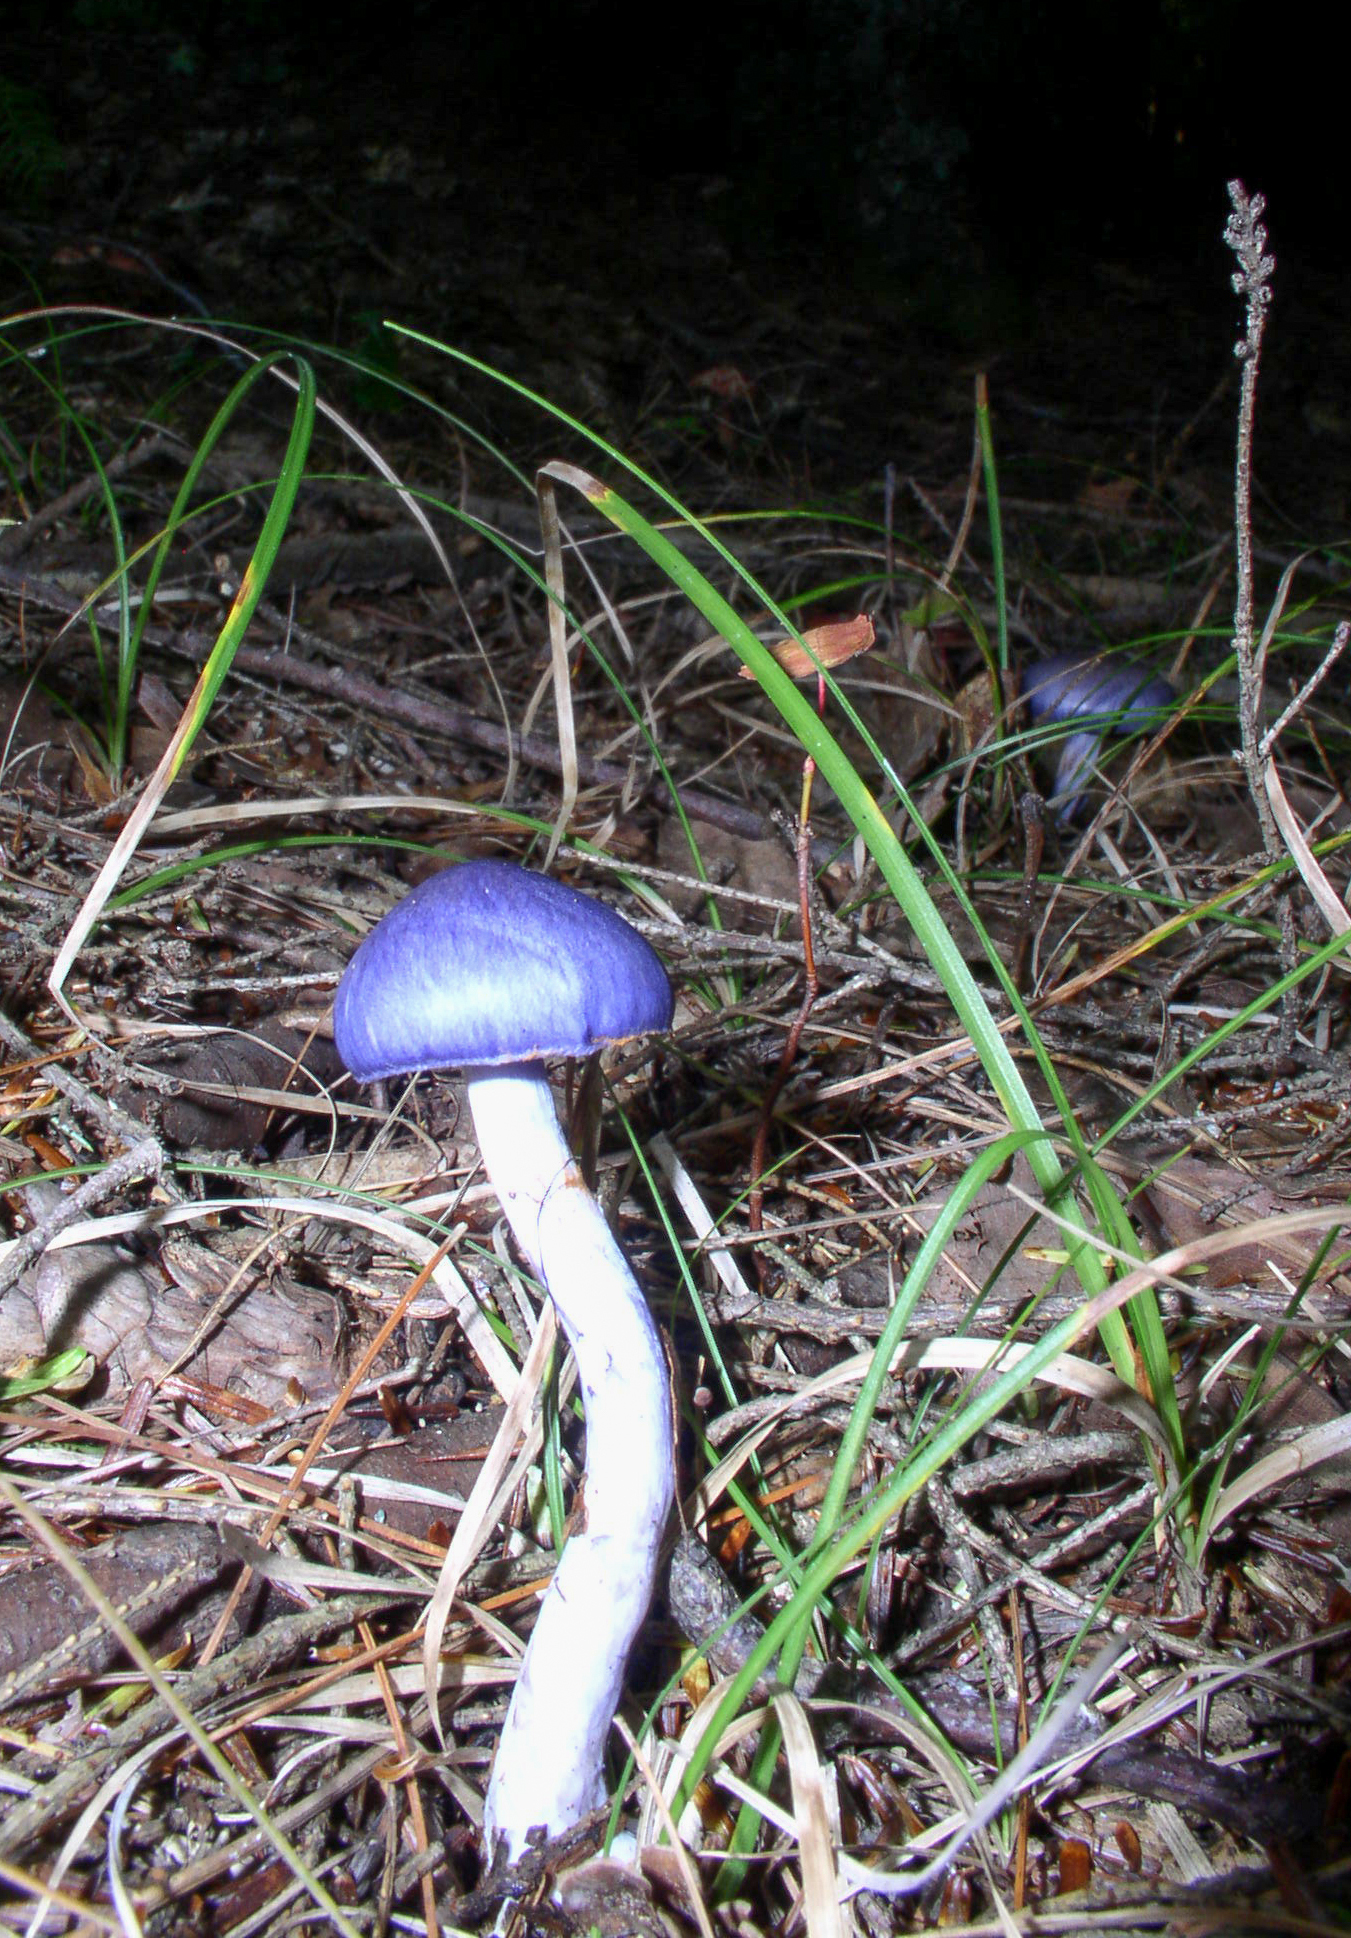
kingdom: Fungi
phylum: Basidiomycota
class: Agaricomycetes
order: Agaricales
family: Cortinariaceae
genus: Cortinarius
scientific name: Cortinarius iodes
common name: Viscid violet cort
